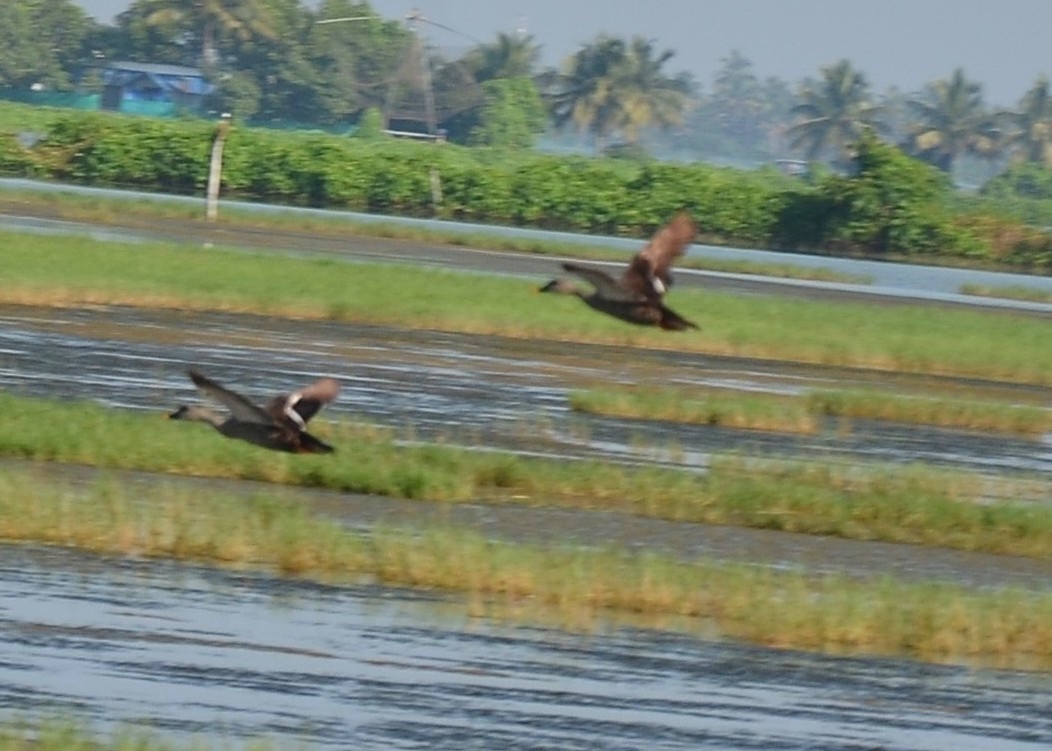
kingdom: Animalia
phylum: Chordata
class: Aves
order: Anseriformes
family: Anatidae
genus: Anas
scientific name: Anas poecilorhyncha
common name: Indian spot-billed duck
